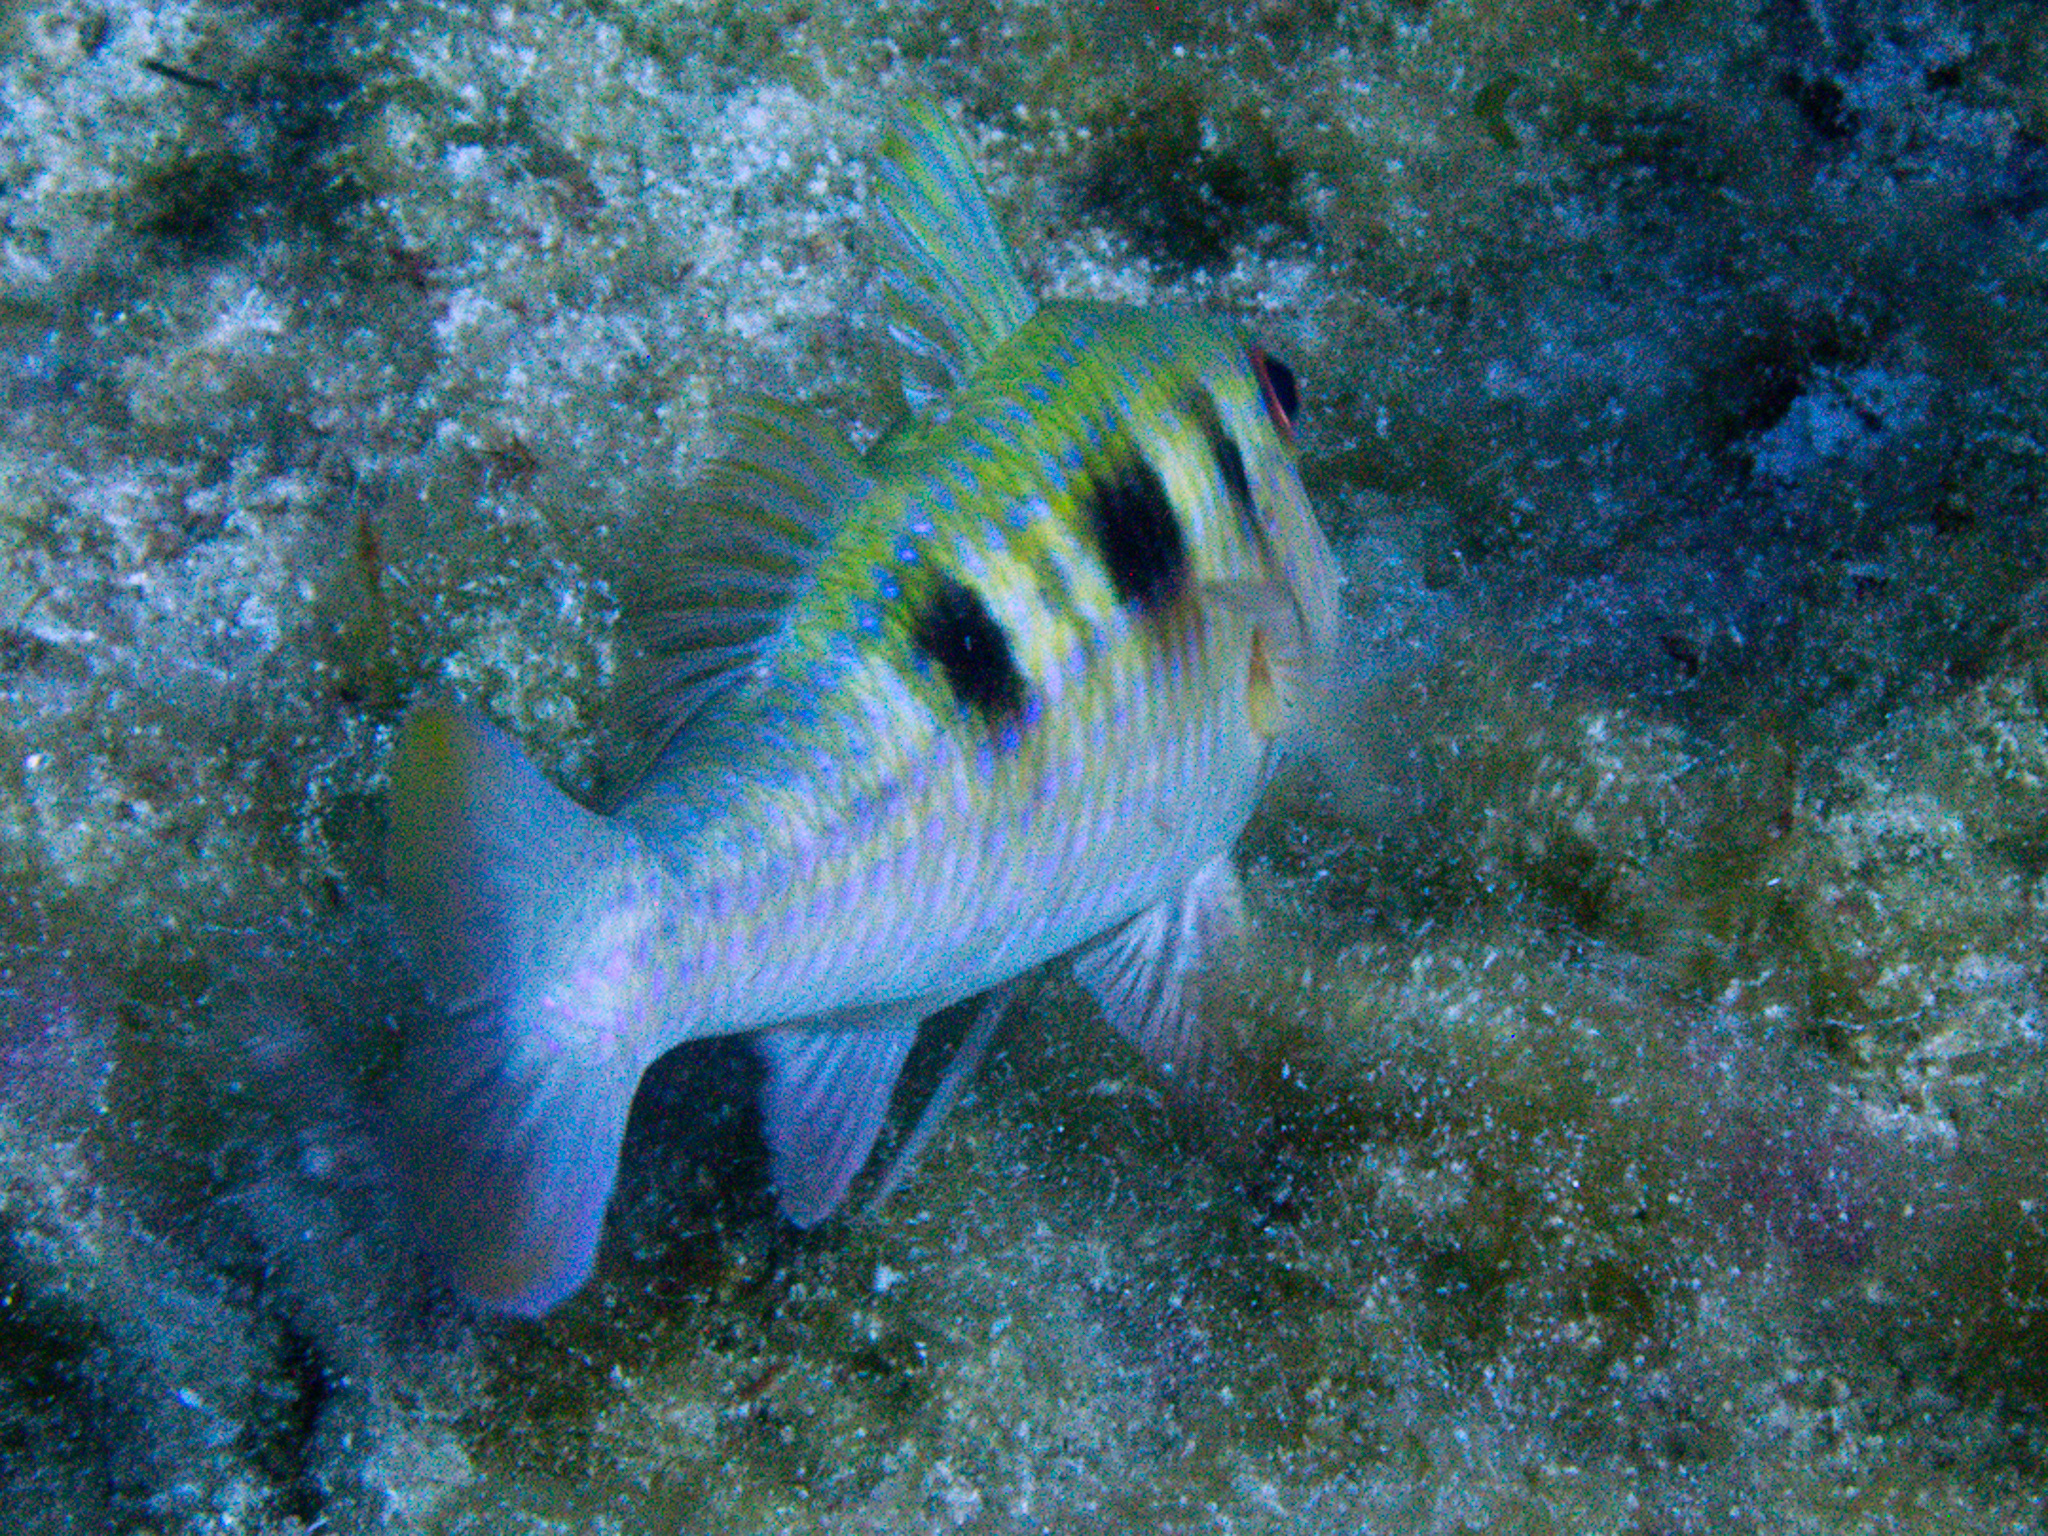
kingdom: Animalia
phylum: Chordata
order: Perciformes
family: Mullidae
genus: Pseudupeneus
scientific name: Pseudupeneus maculatus
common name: Spotted goatfish
